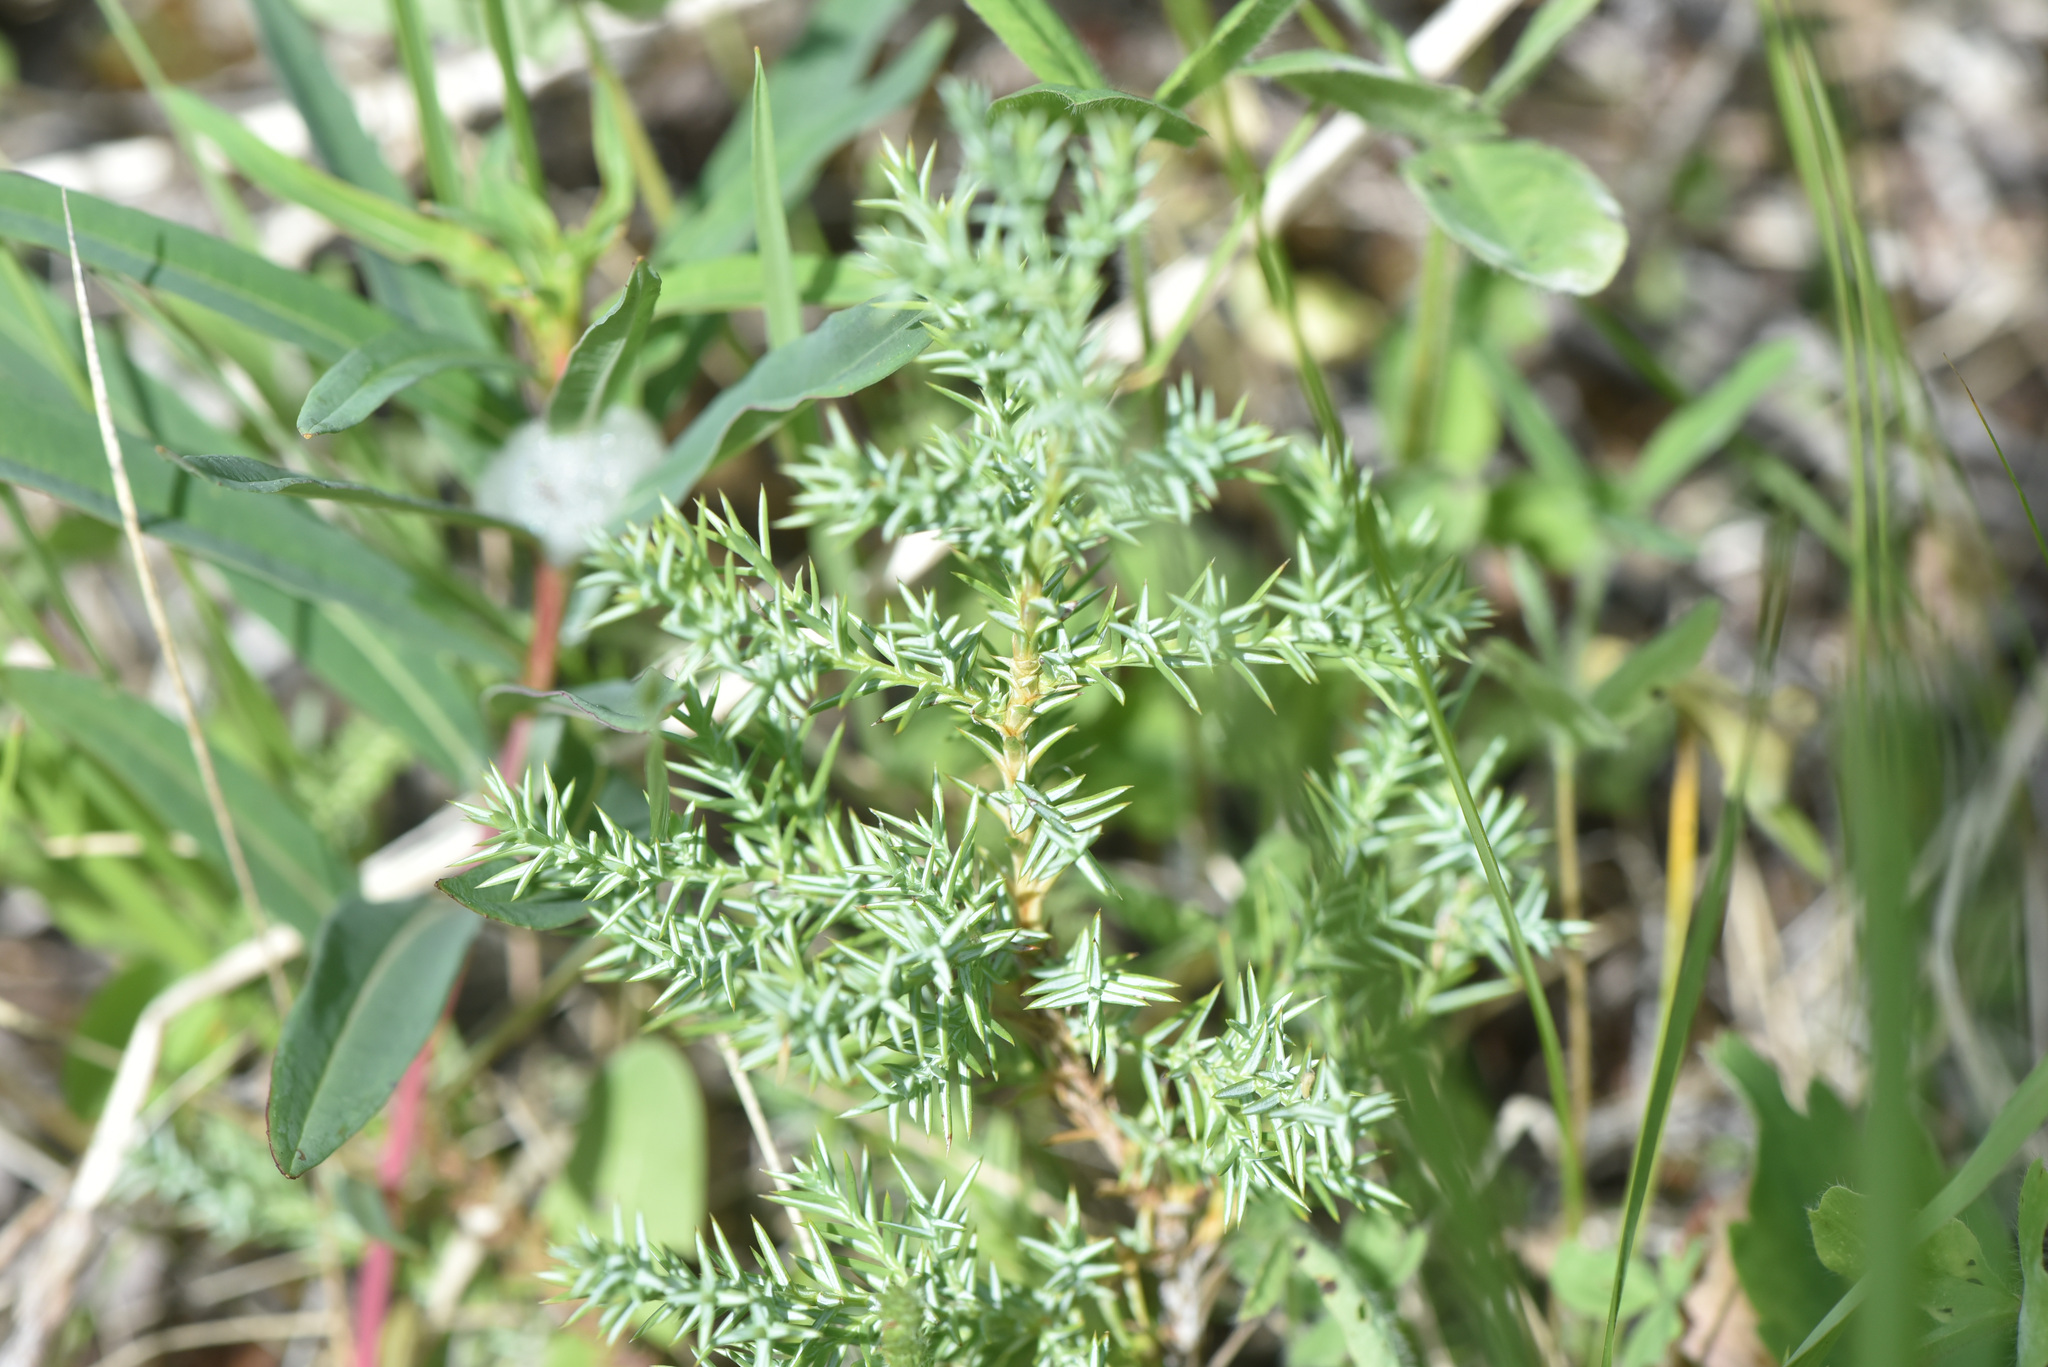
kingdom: Plantae
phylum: Tracheophyta
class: Pinopsida
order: Pinales
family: Cupressaceae
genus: Juniperus
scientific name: Juniperus communis
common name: Common juniper
